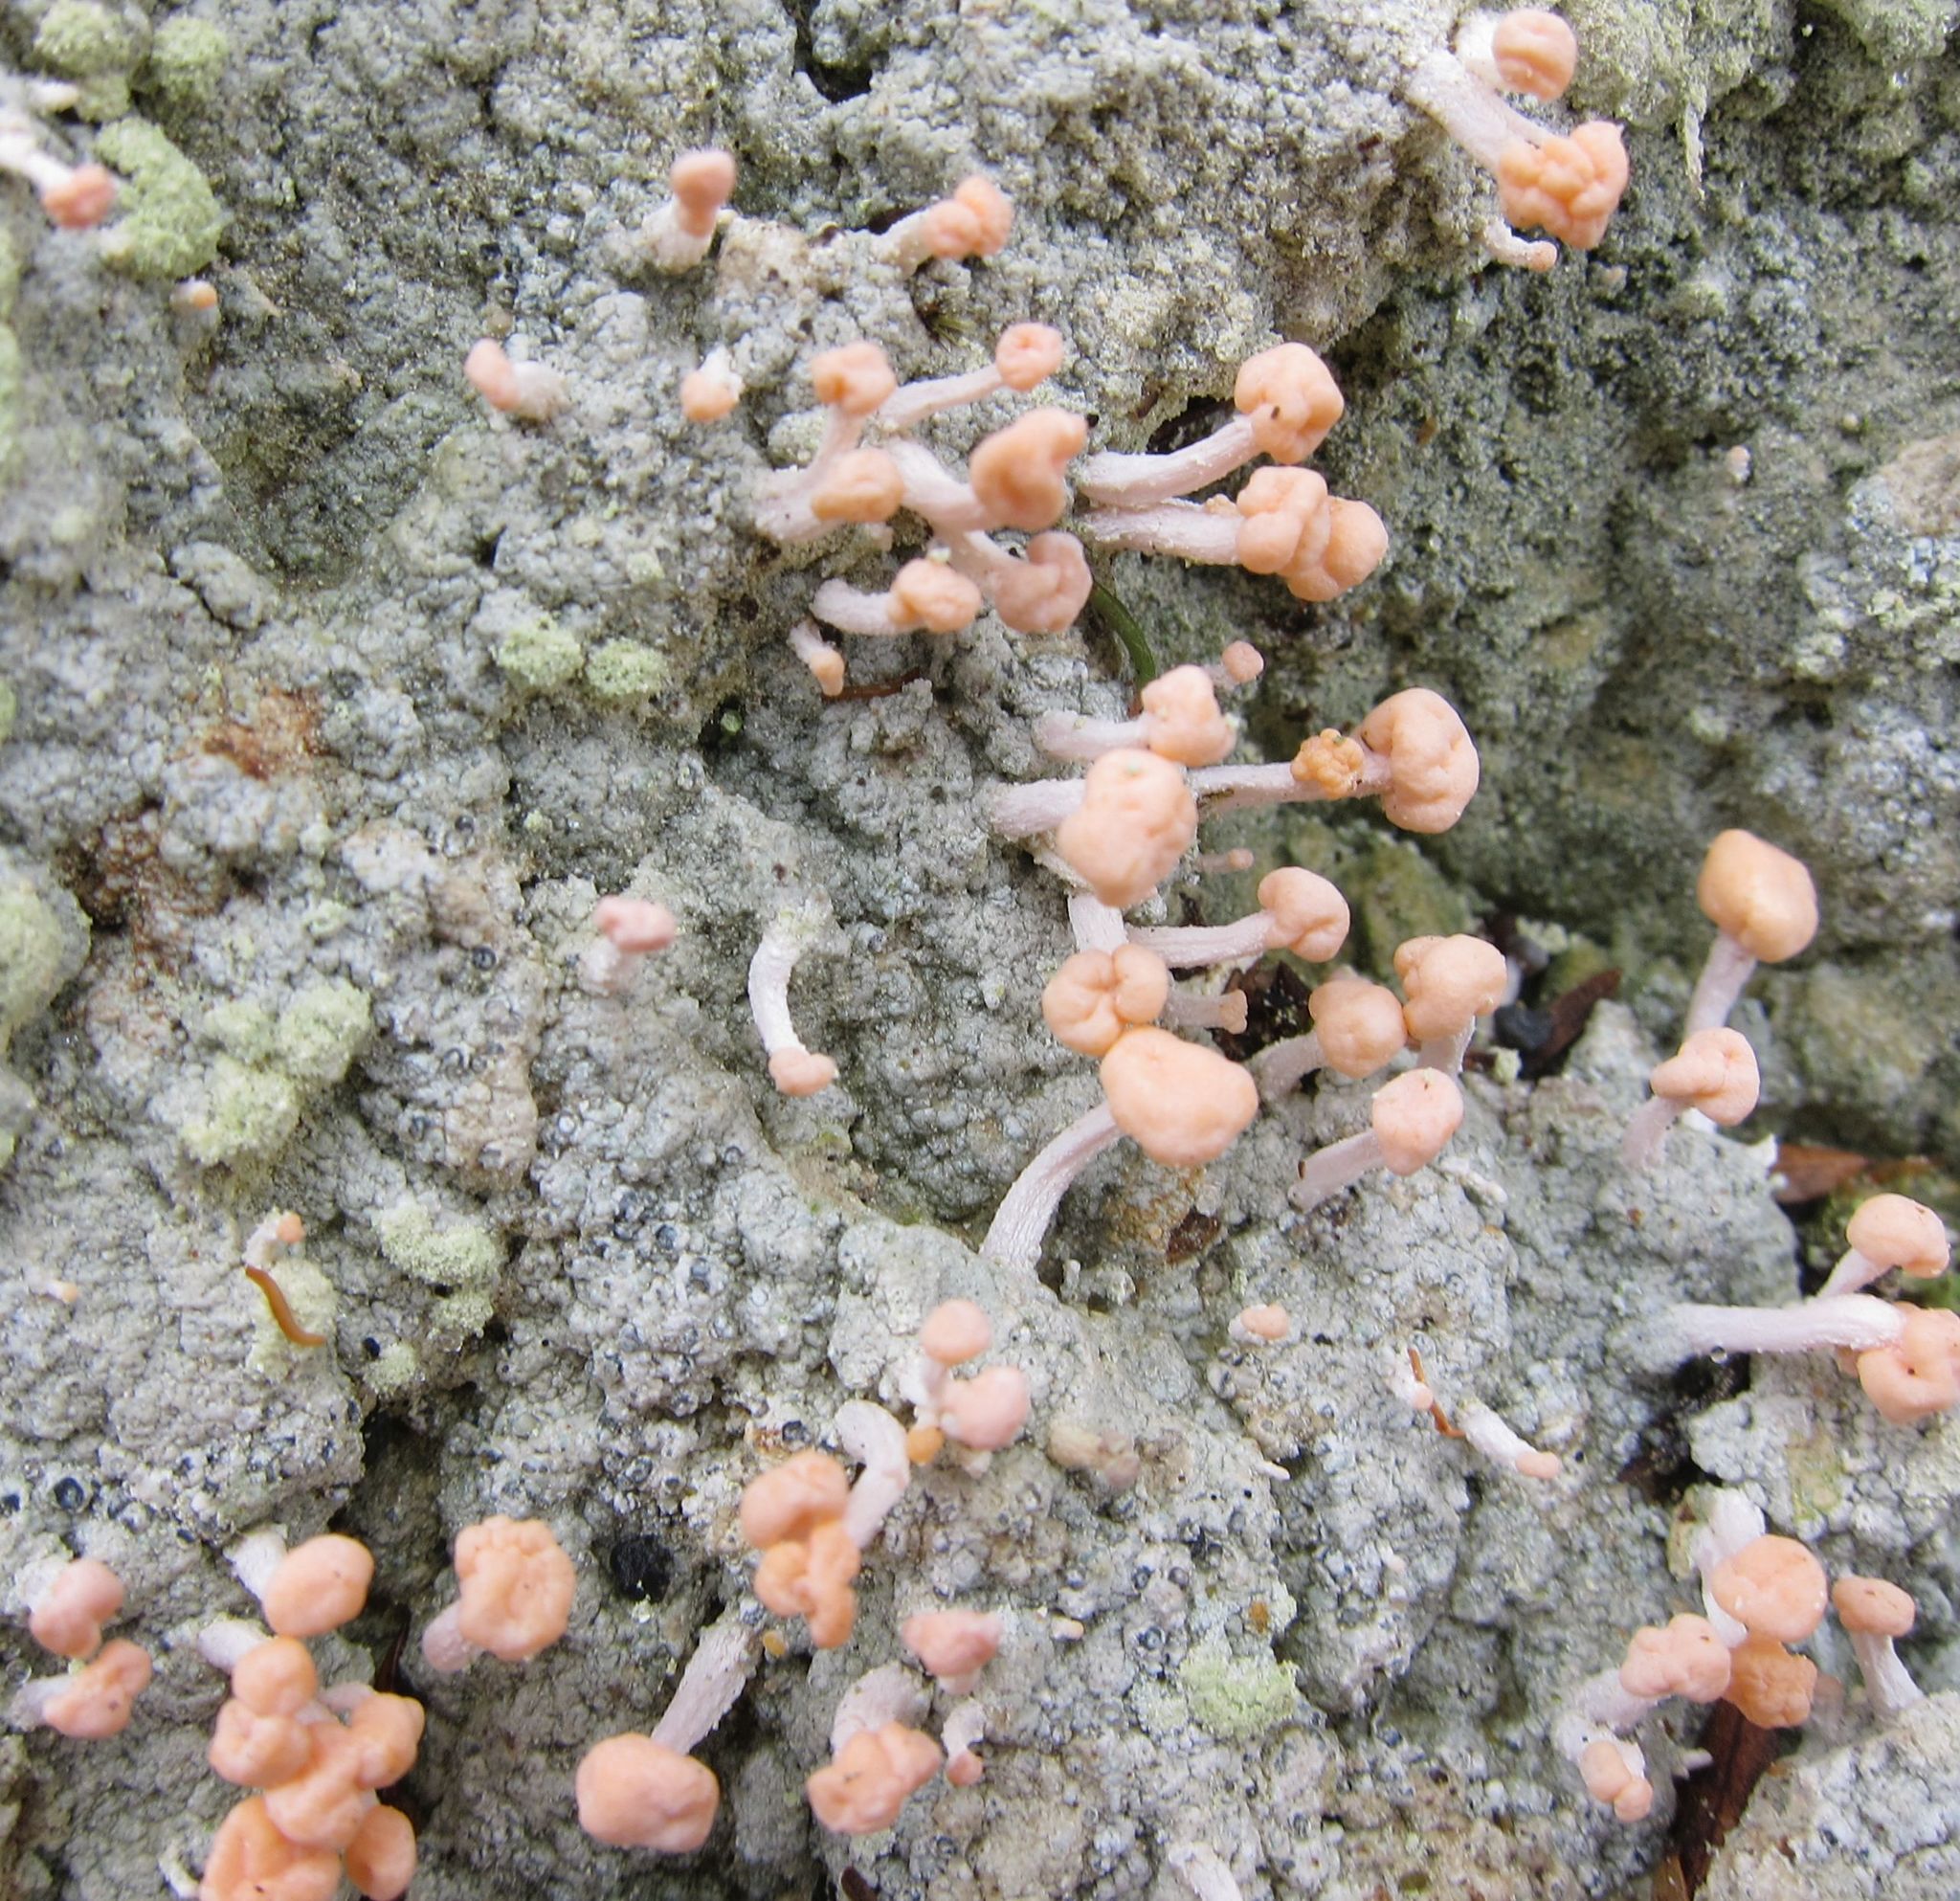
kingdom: Fungi
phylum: Ascomycota
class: Lecanoromycetes
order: Pertusariales
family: Icmadophilaceae
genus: Dibaeis
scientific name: Dibaeis arcuata
